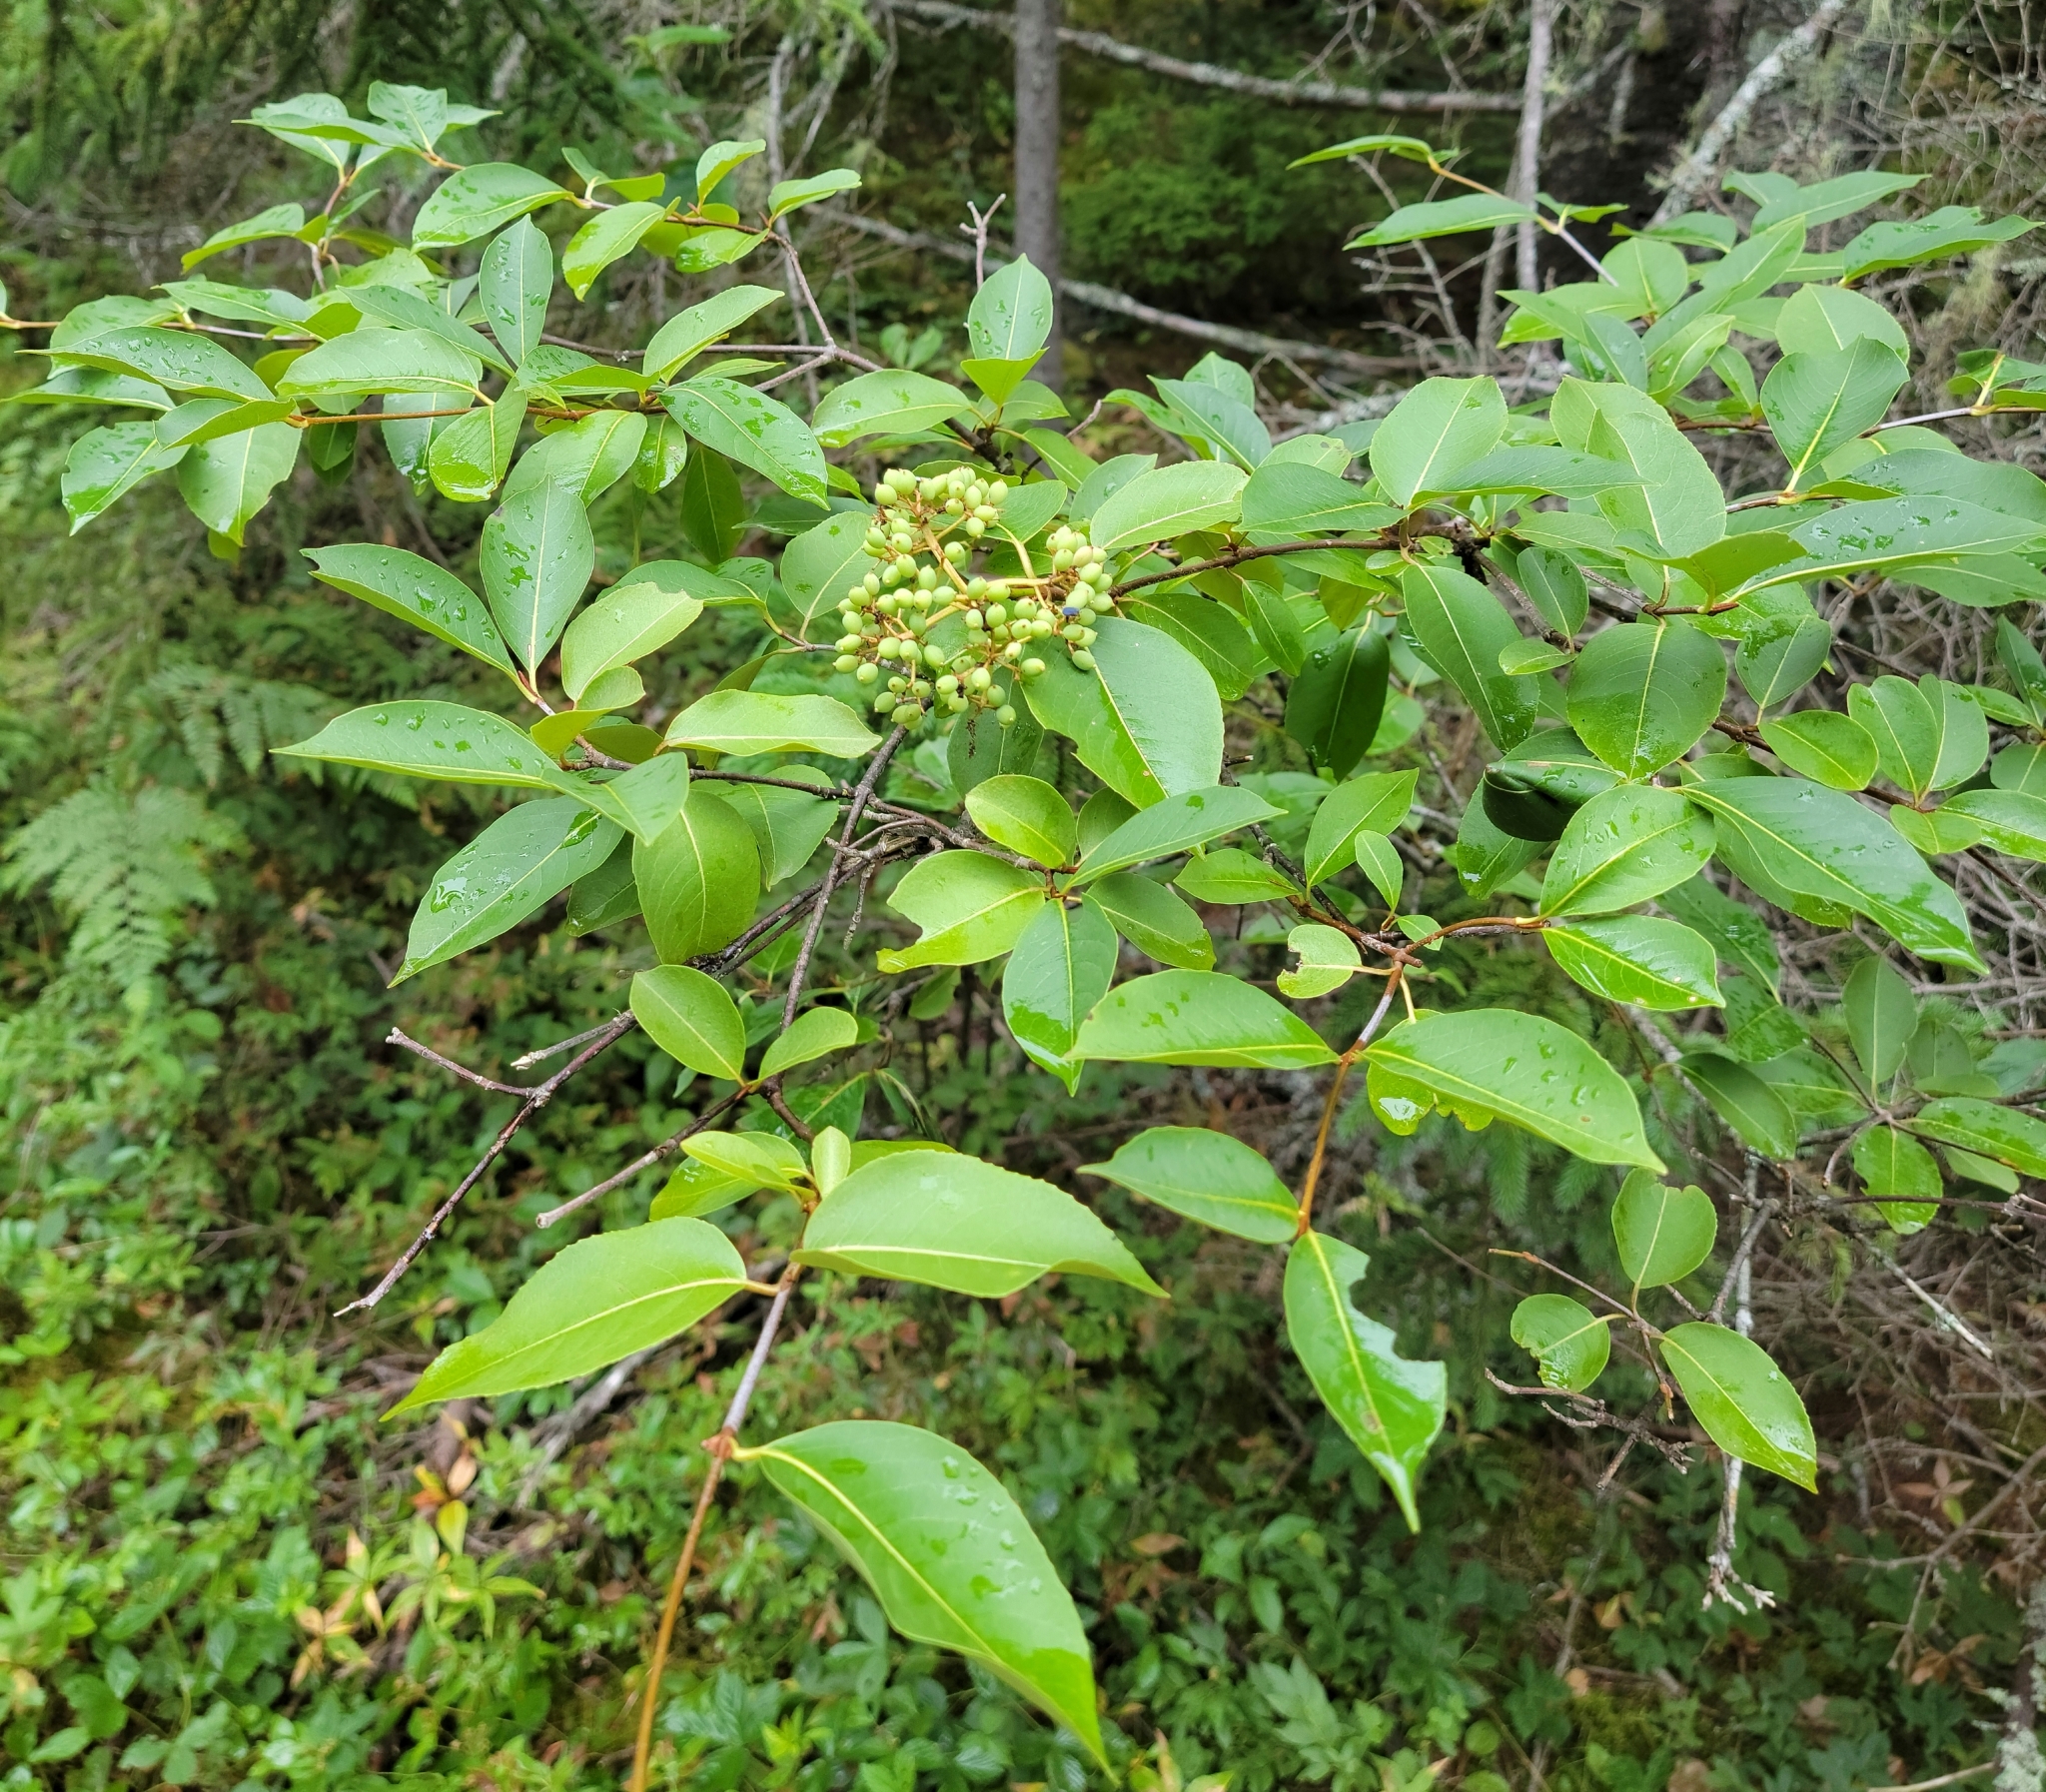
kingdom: Plantae
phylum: Tracheophyta
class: Magnoliopsida
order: Dipsacales
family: Viburnaceae
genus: Viburnum
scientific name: Viburnum cassinoides
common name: Swamp haw
